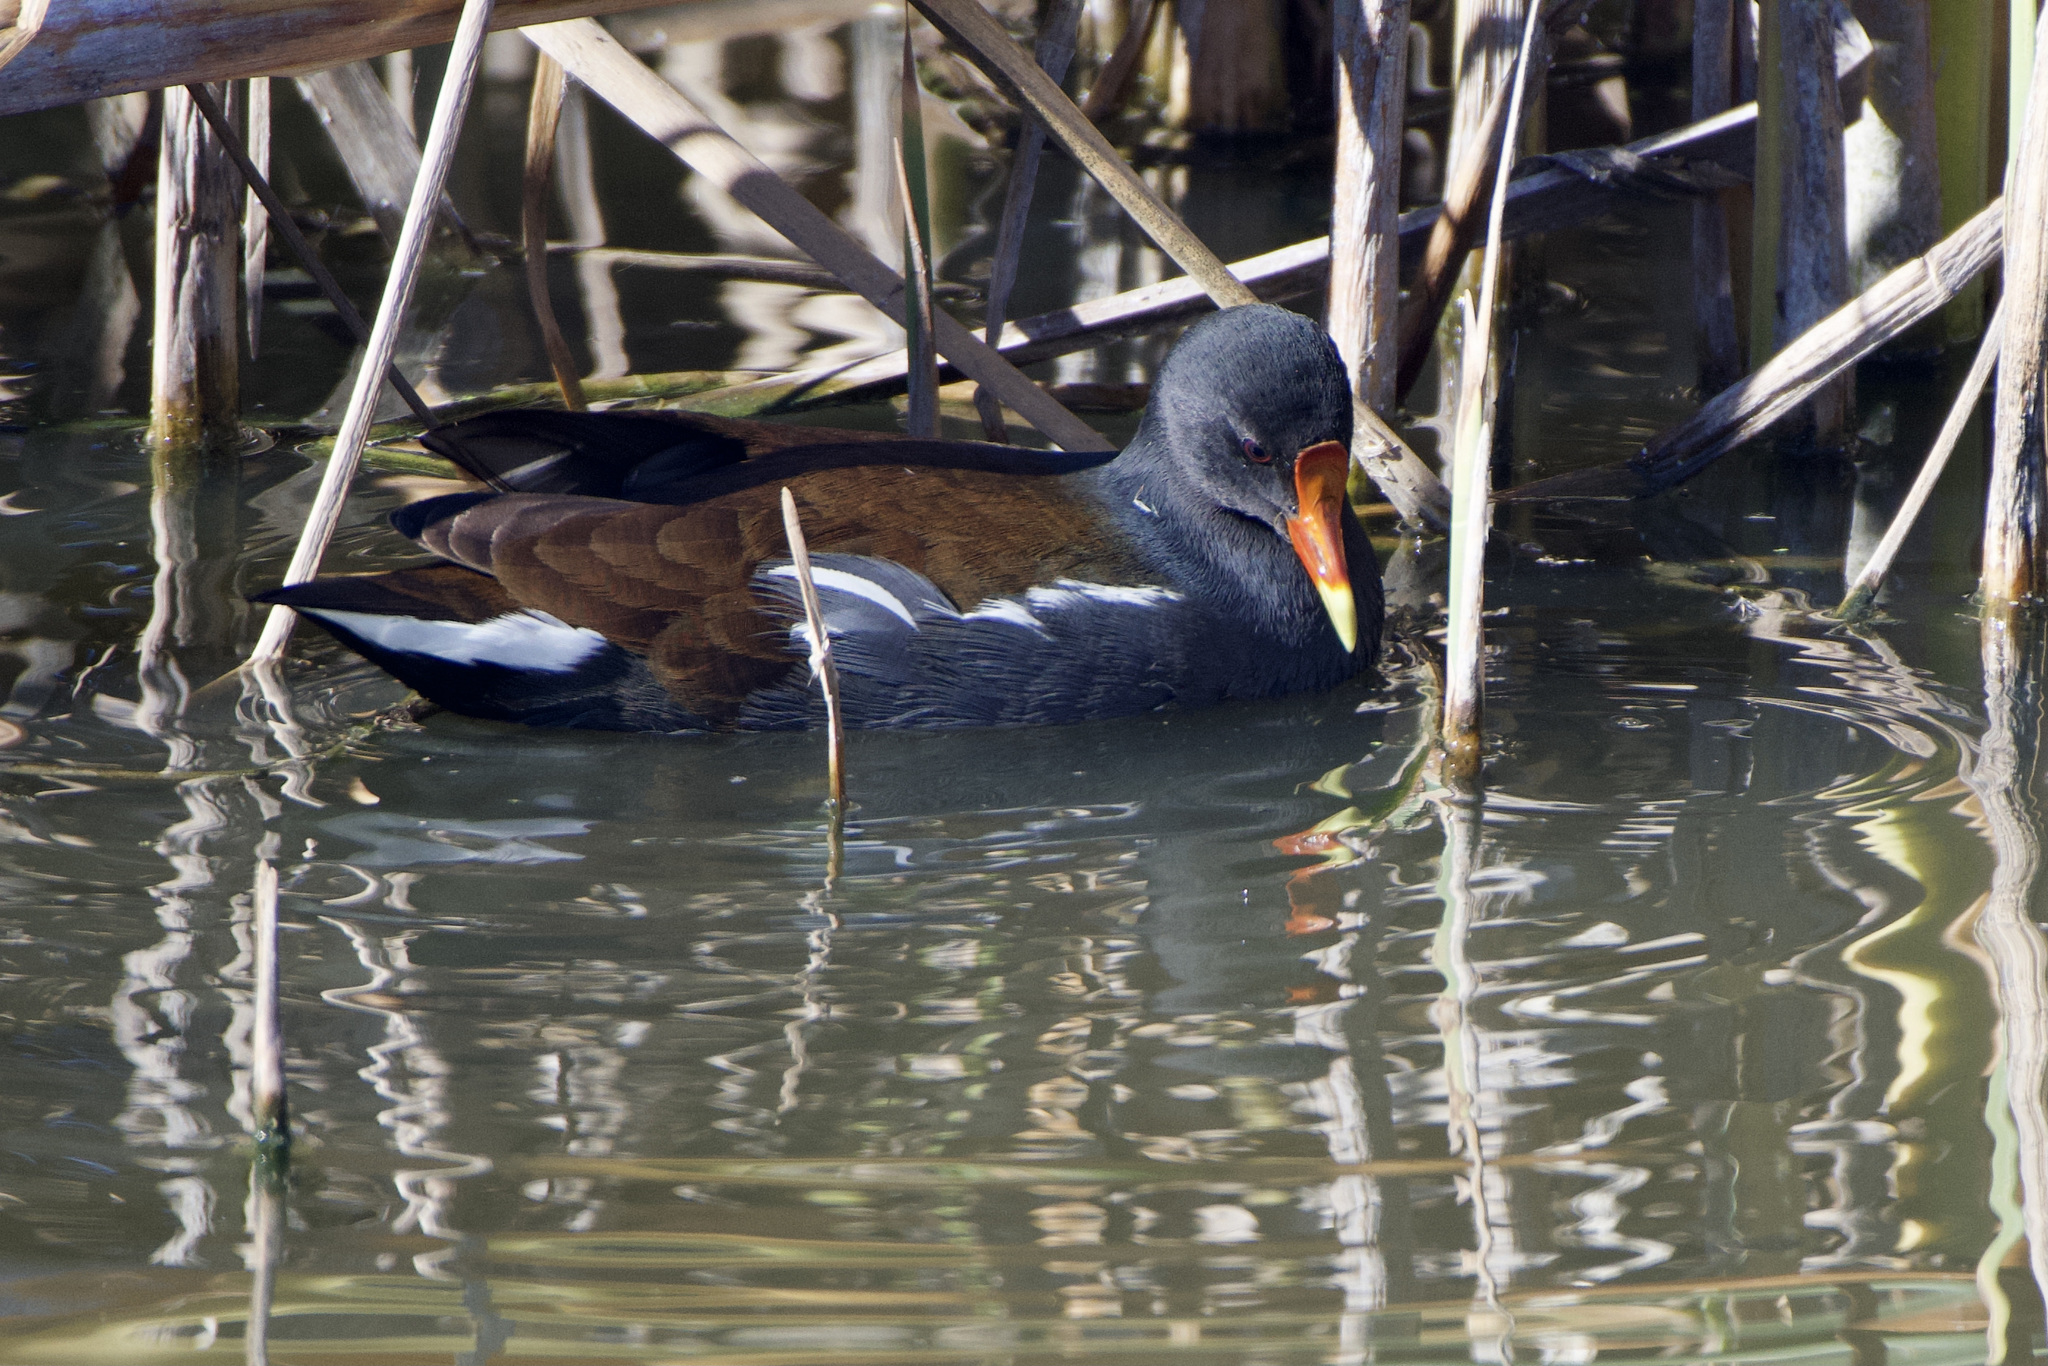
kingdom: Animalia
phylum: Chordata
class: Aves
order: Gruiformes
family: Rallidae
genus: Gallinula
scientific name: Gallinula chloropus
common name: Common moorhen
